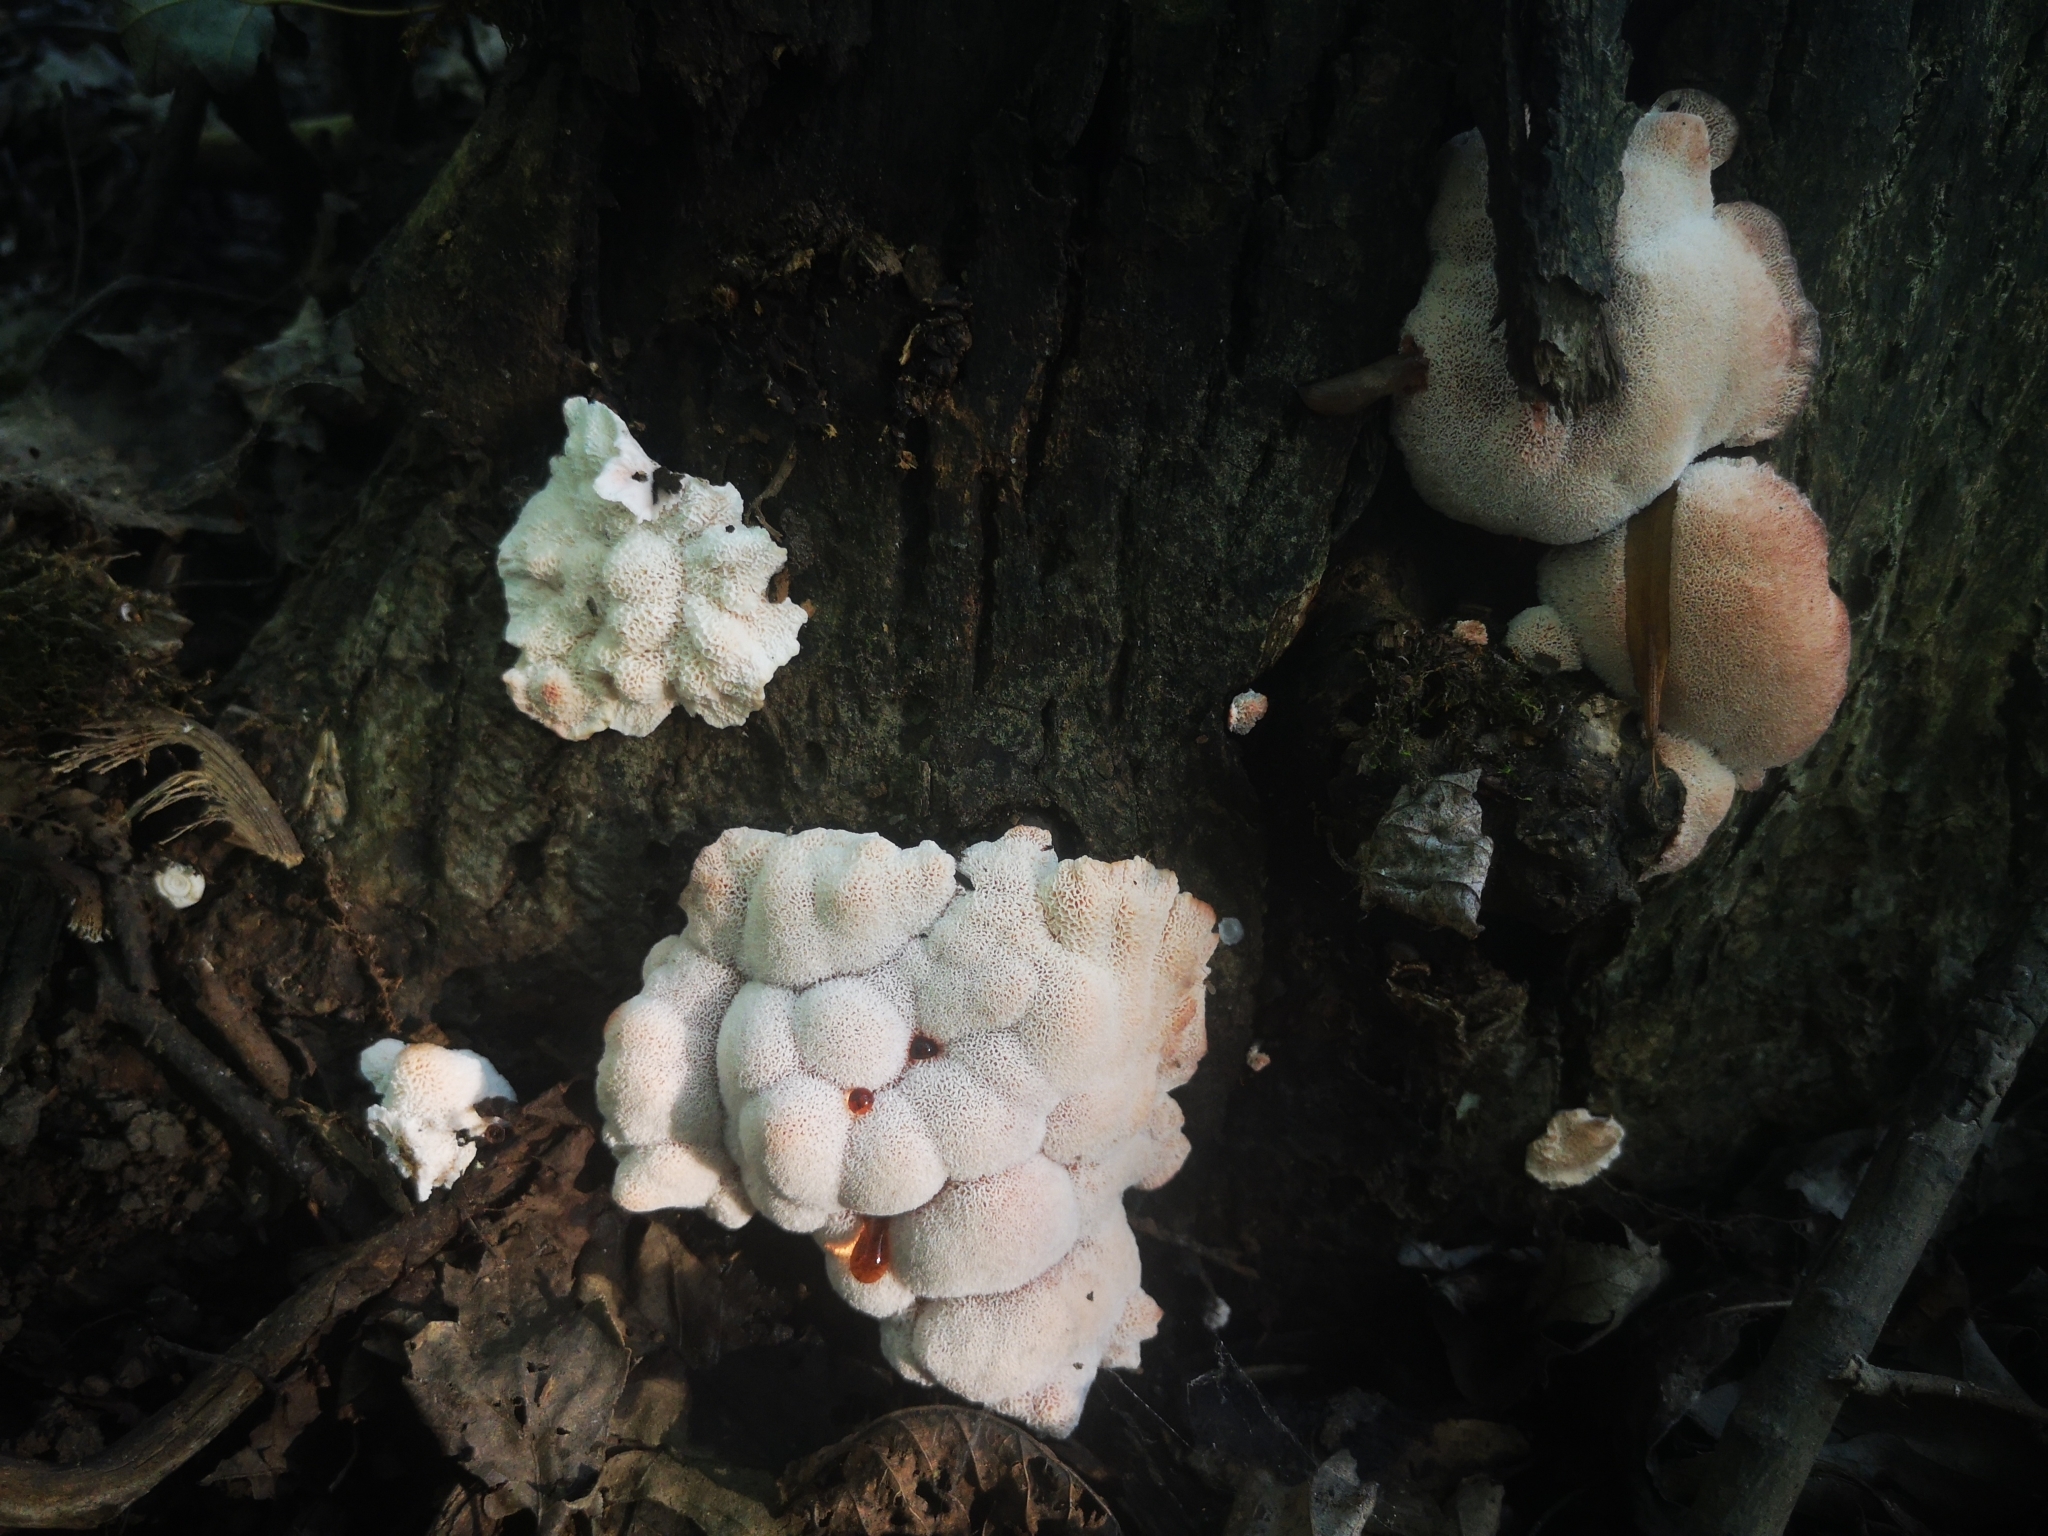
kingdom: Fungi
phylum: Basidiomycota
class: Agaricomycetes
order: Polyporales
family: Podoscyphaceae
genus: Abortiporus
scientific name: Abortiporus biennis
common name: Blushing rosette
